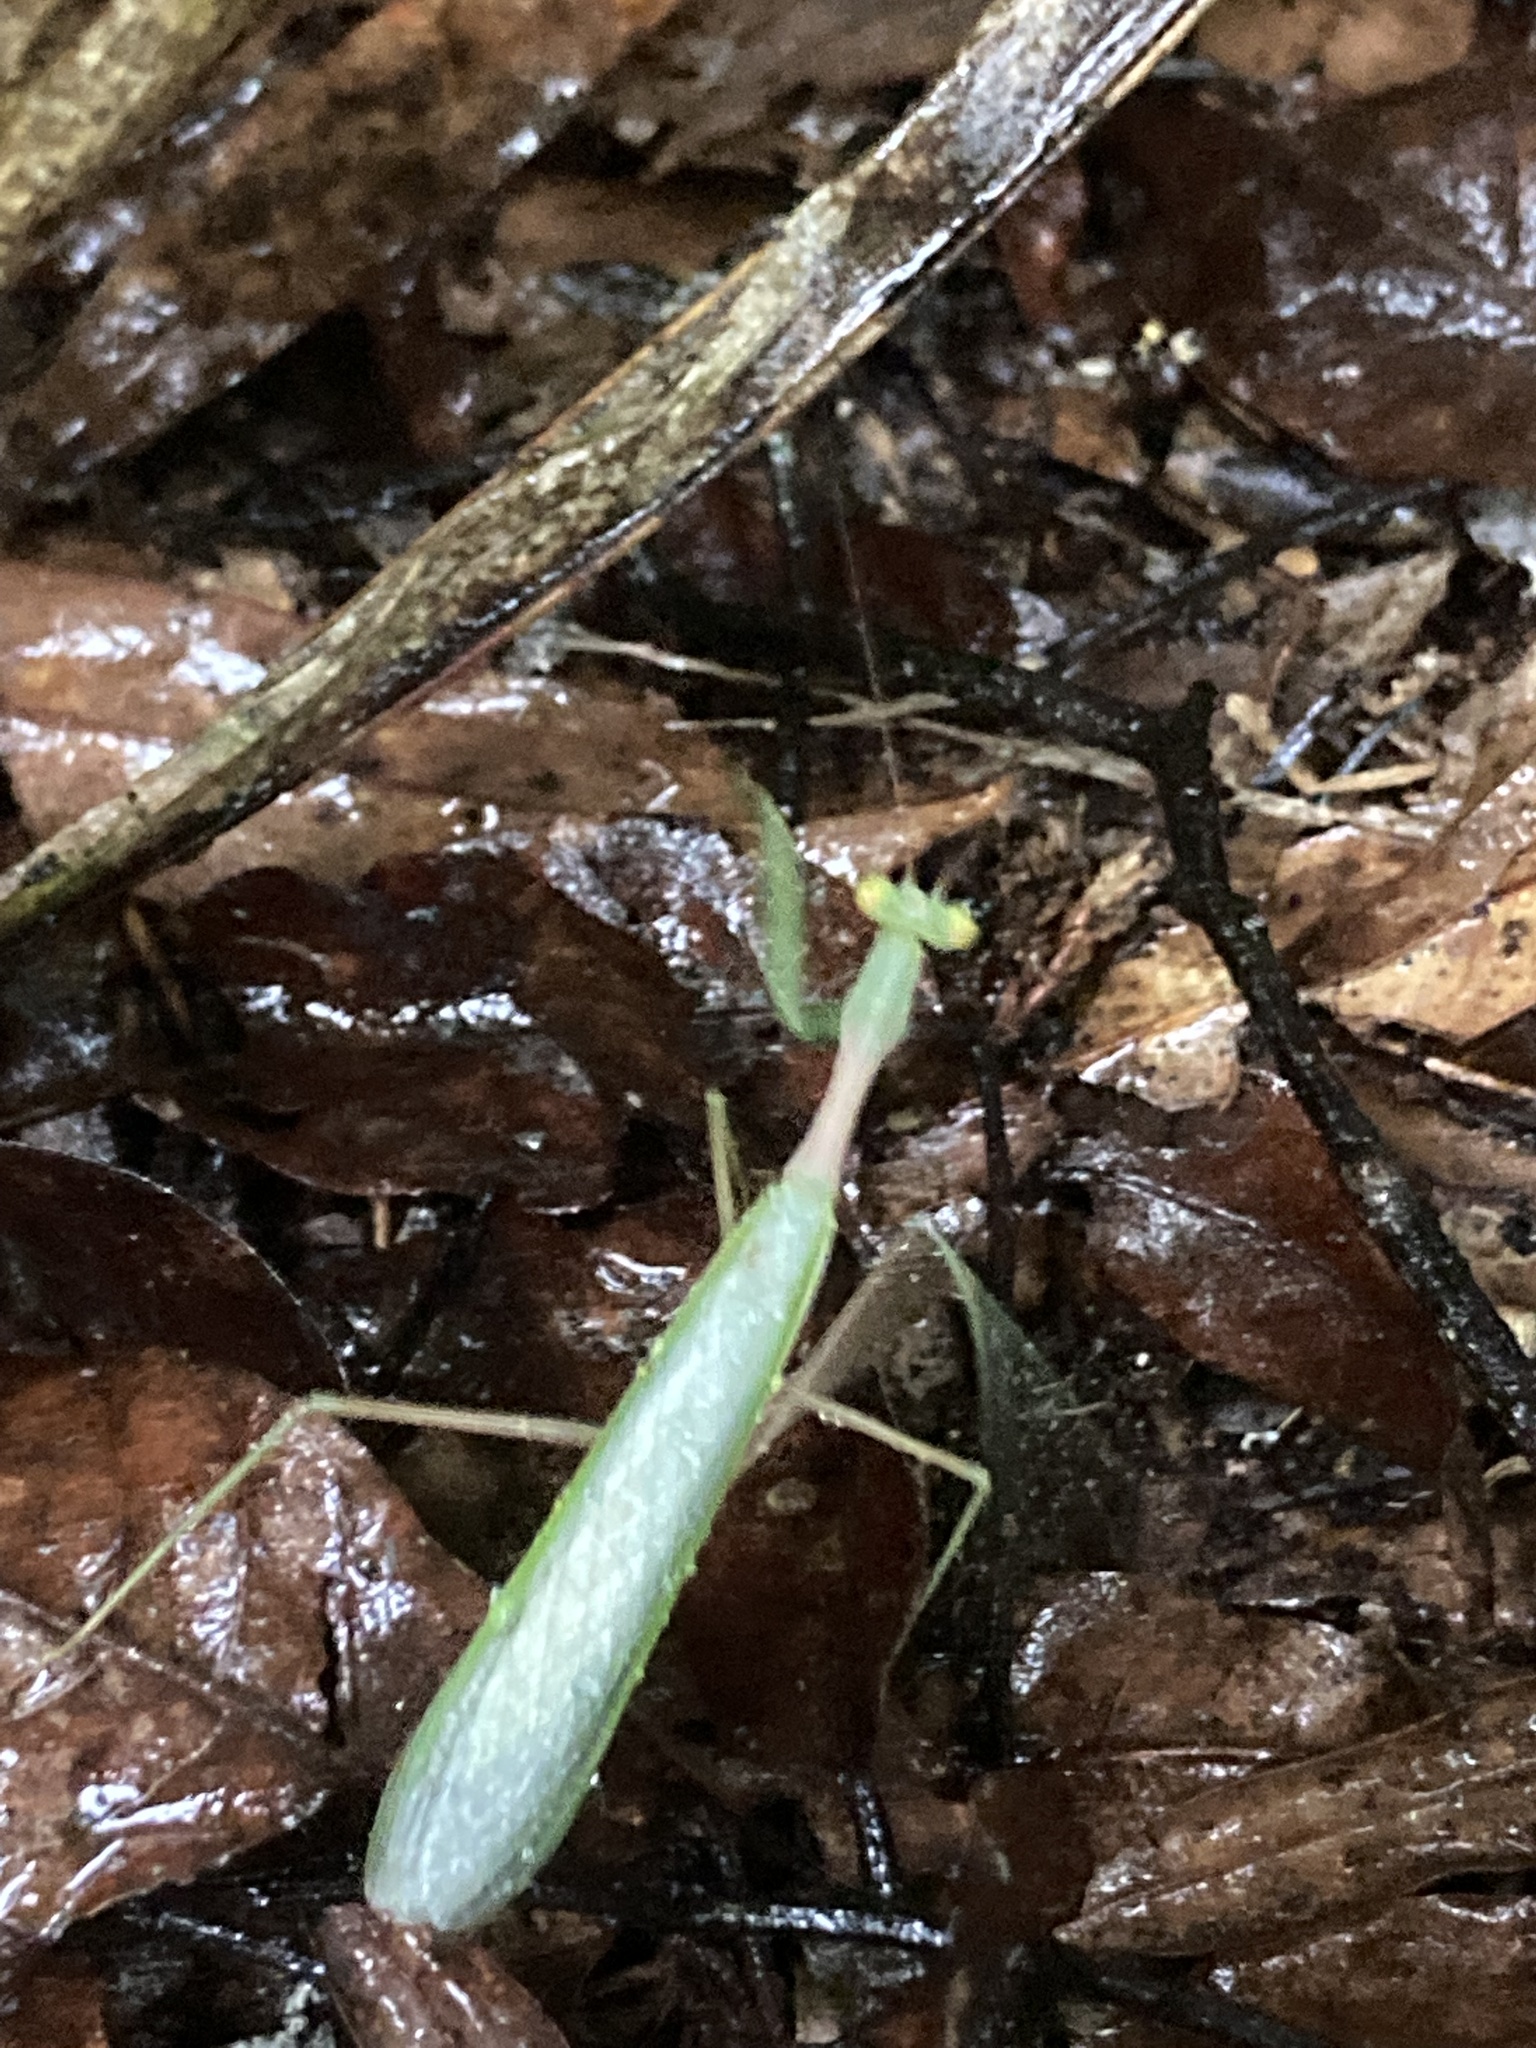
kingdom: Animalia
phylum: Arthropoda
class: Insecta
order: Mantodea
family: Miomantidae
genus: Miomantis
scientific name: Miomantis caffra
